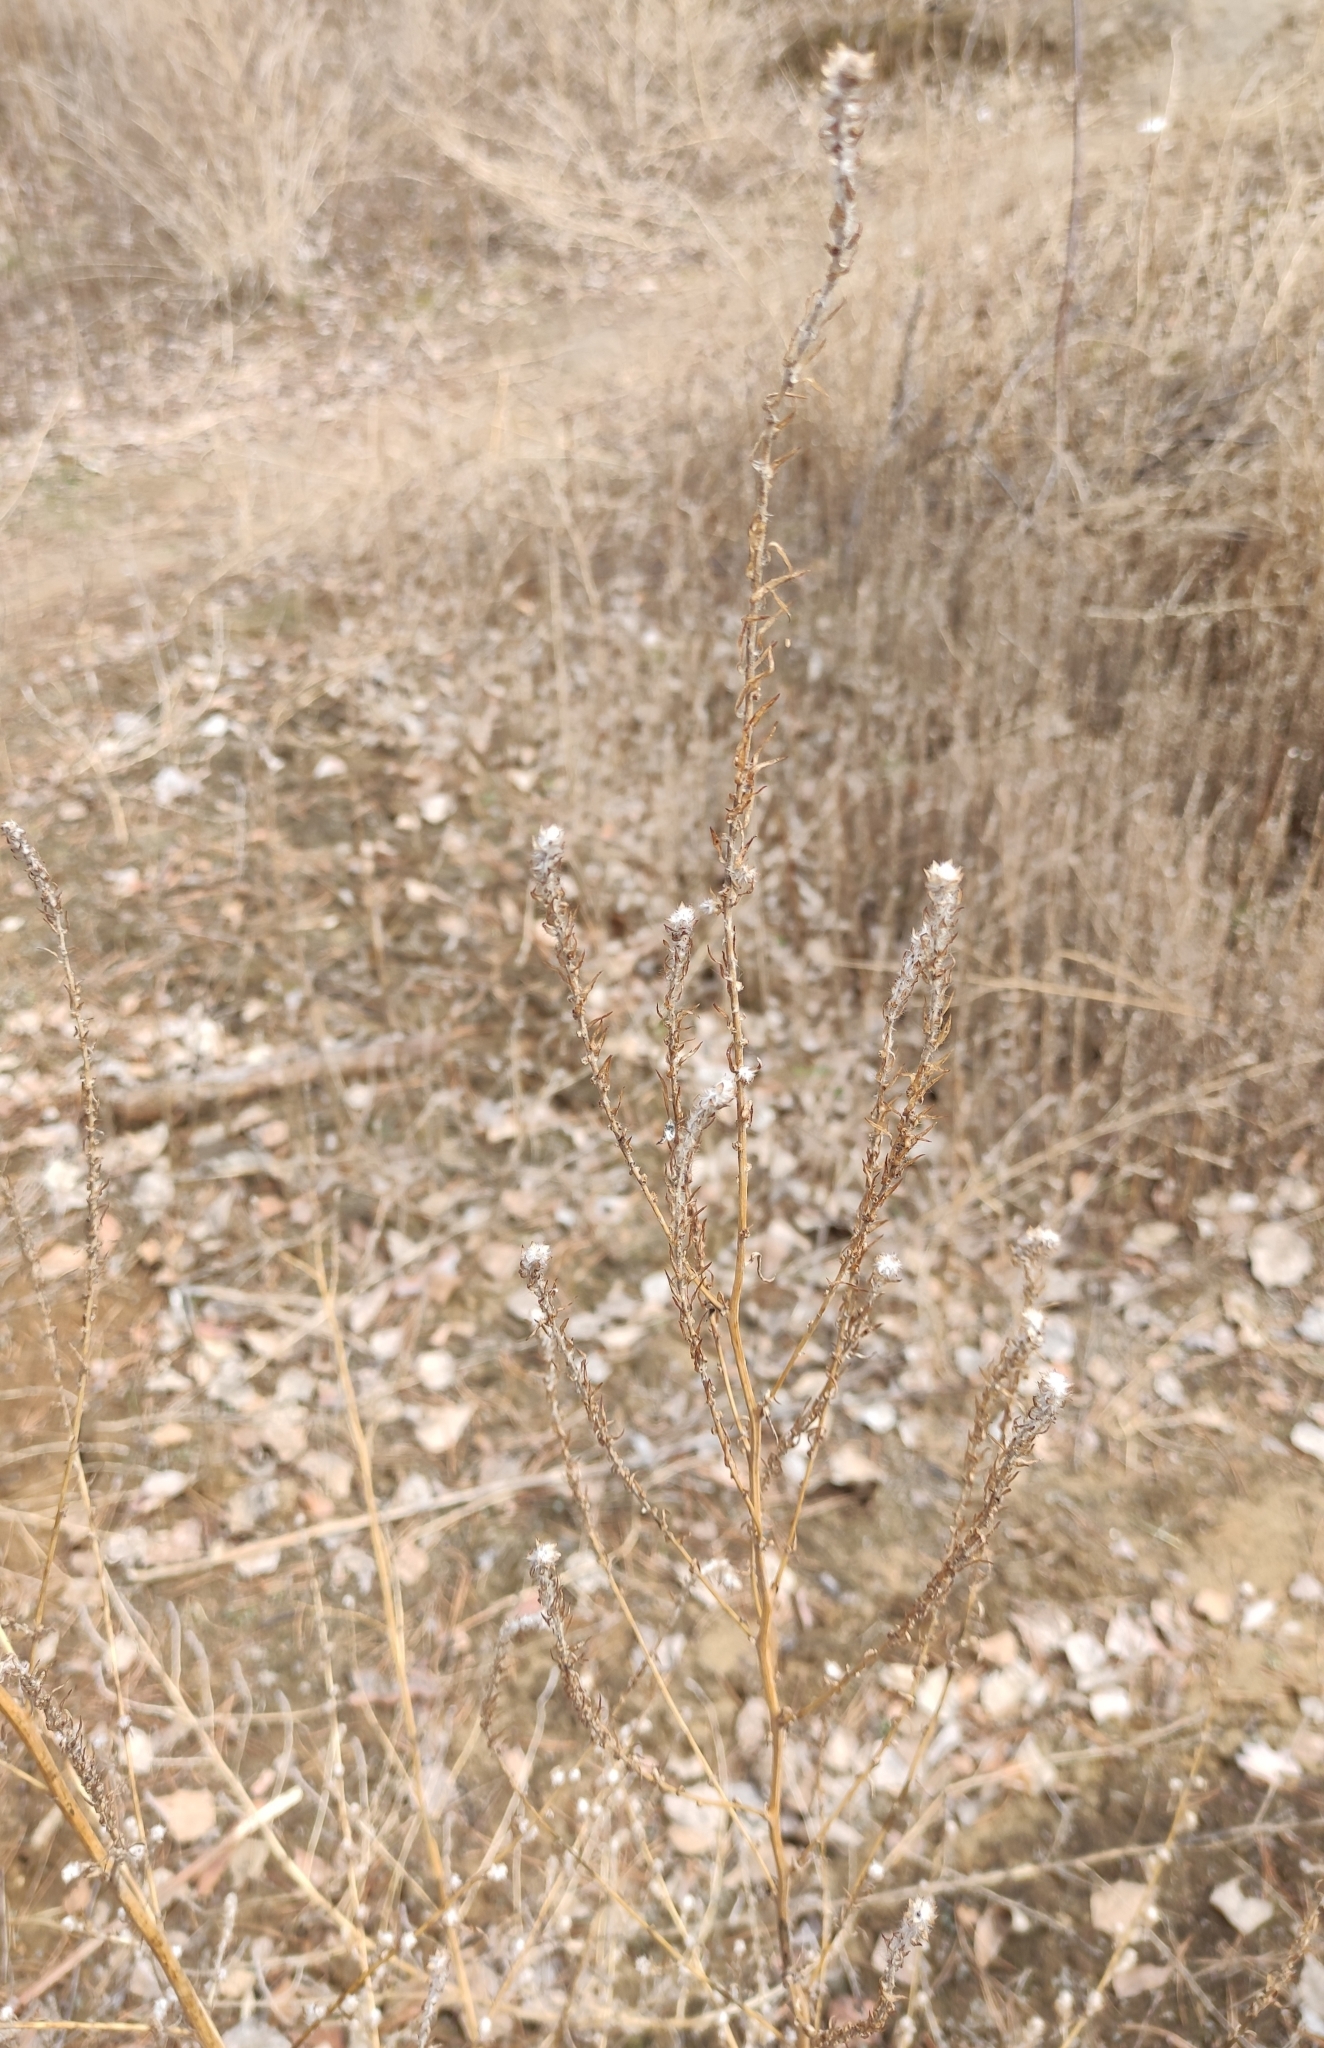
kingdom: Plantae
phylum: Tracheophyta
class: Magnoliopsida
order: Caryophyllales
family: Amaranthaceae
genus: Bassia
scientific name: Bassia scoparia
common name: Belvedere
